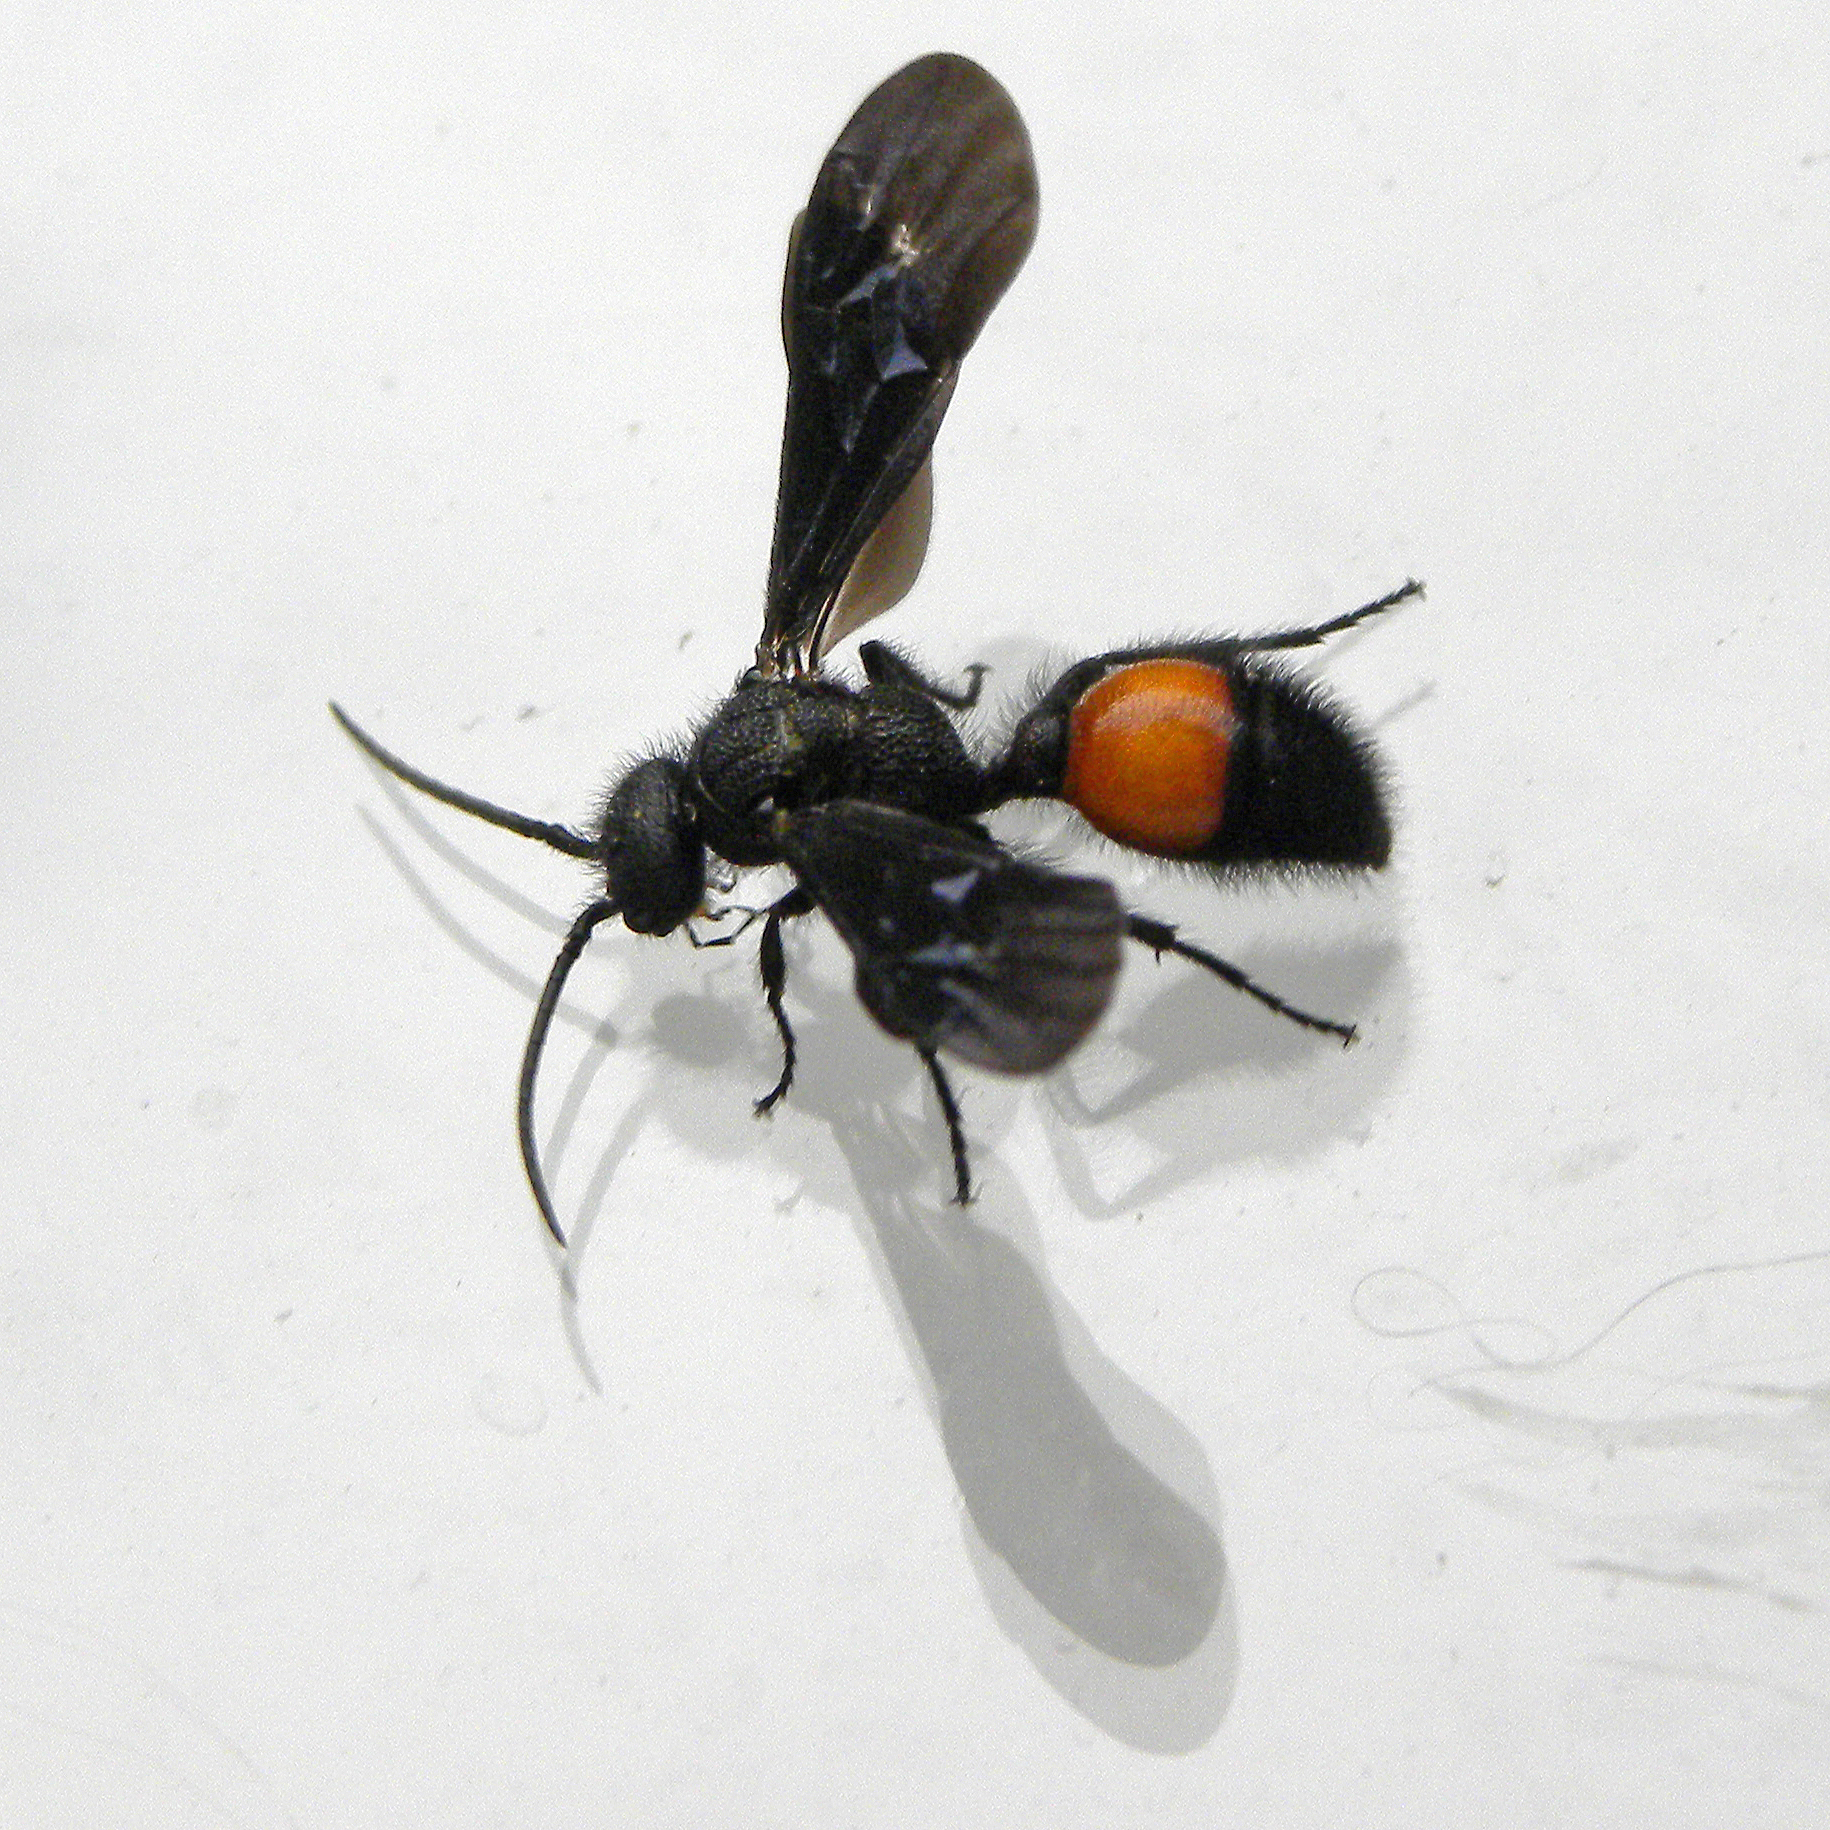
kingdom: Animalia
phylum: Arthropoda
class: Insecta
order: Hymenoptera
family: Mutillidae
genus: Sphaeropthalma
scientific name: Sphaeropthalma
